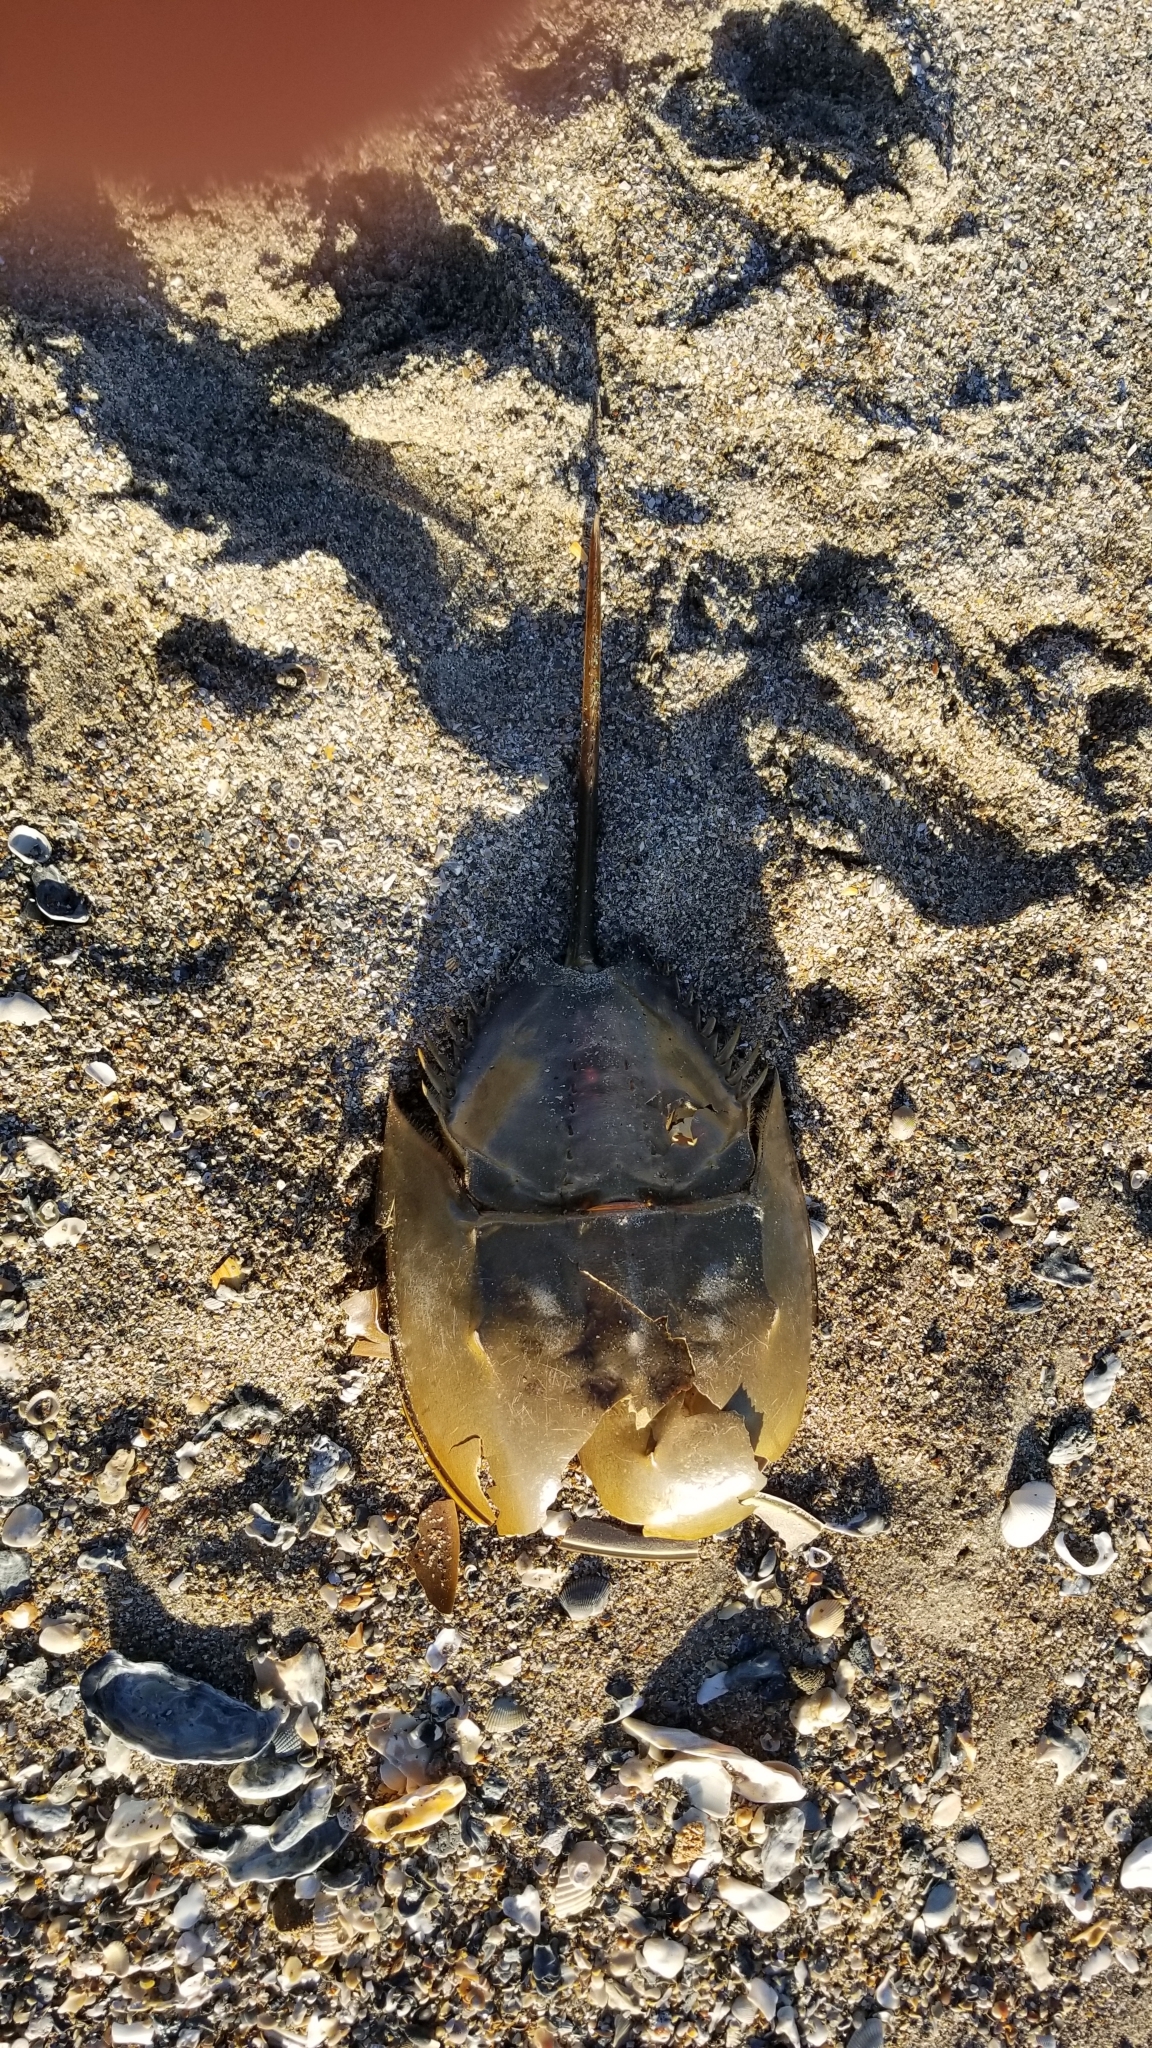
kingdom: Animalia
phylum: Arthropoda
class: Merostomata
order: Xiphosurida
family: Limulidae
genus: Limulus
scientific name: Limulus polyphemus
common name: Horseshoe crab
